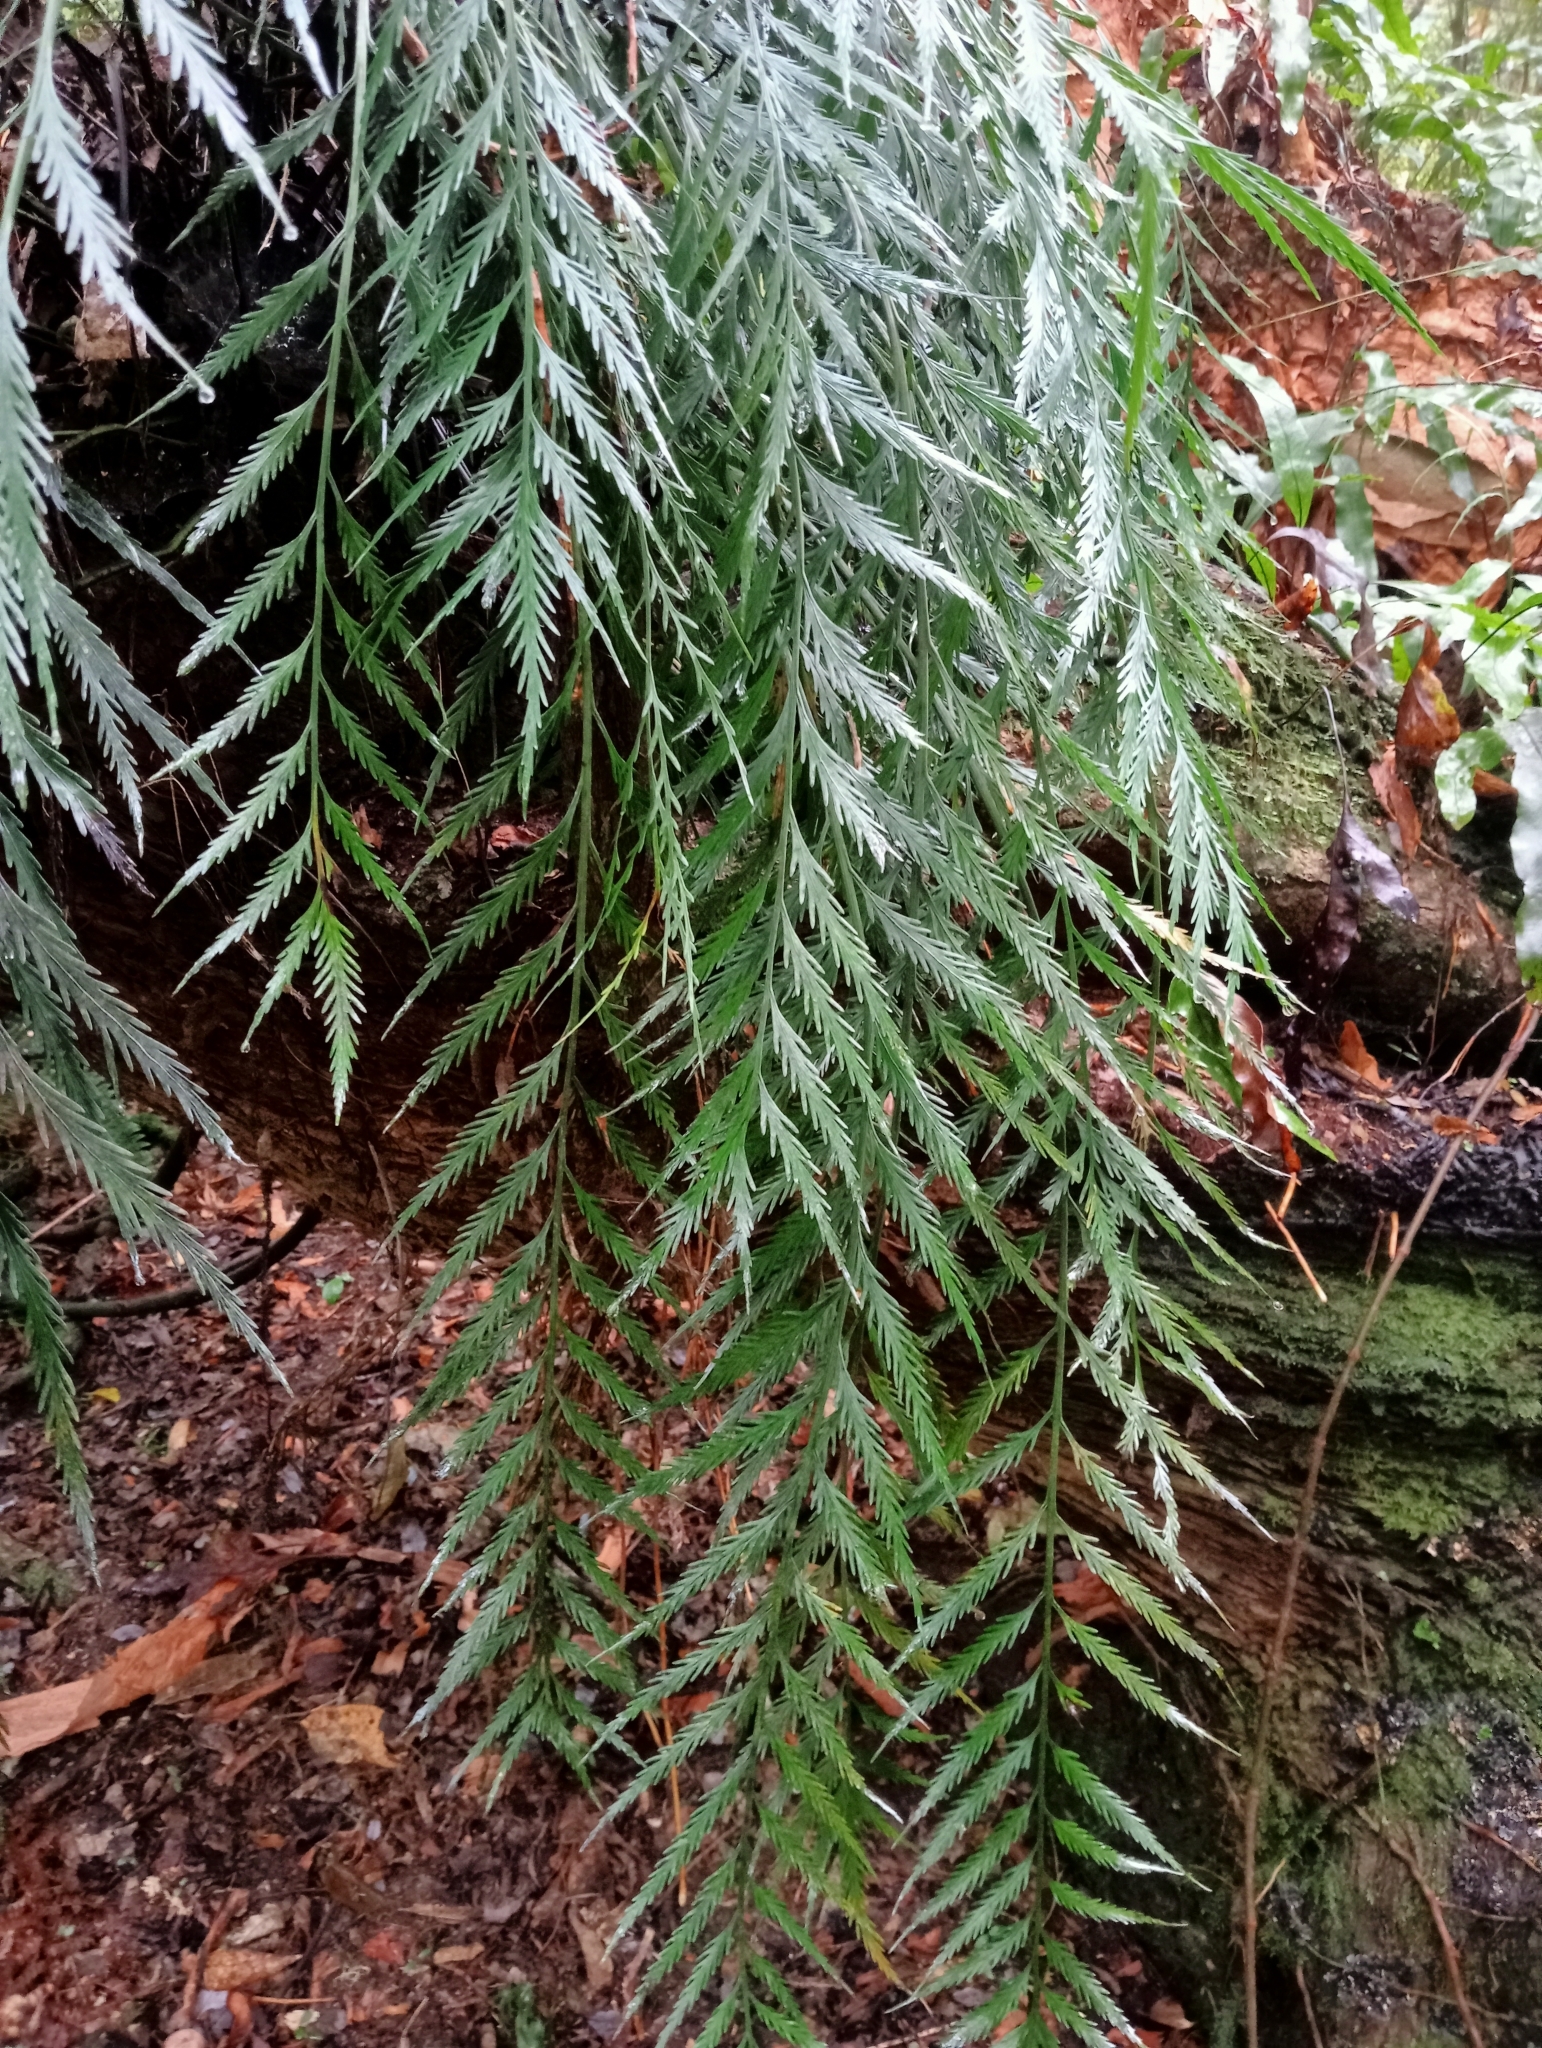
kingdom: Plantae
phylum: Tracheophyta
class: Polypodiopsida
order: Polypodiales
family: Aspleniaceae
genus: Asplenium
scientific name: Asplenium flaccidum
